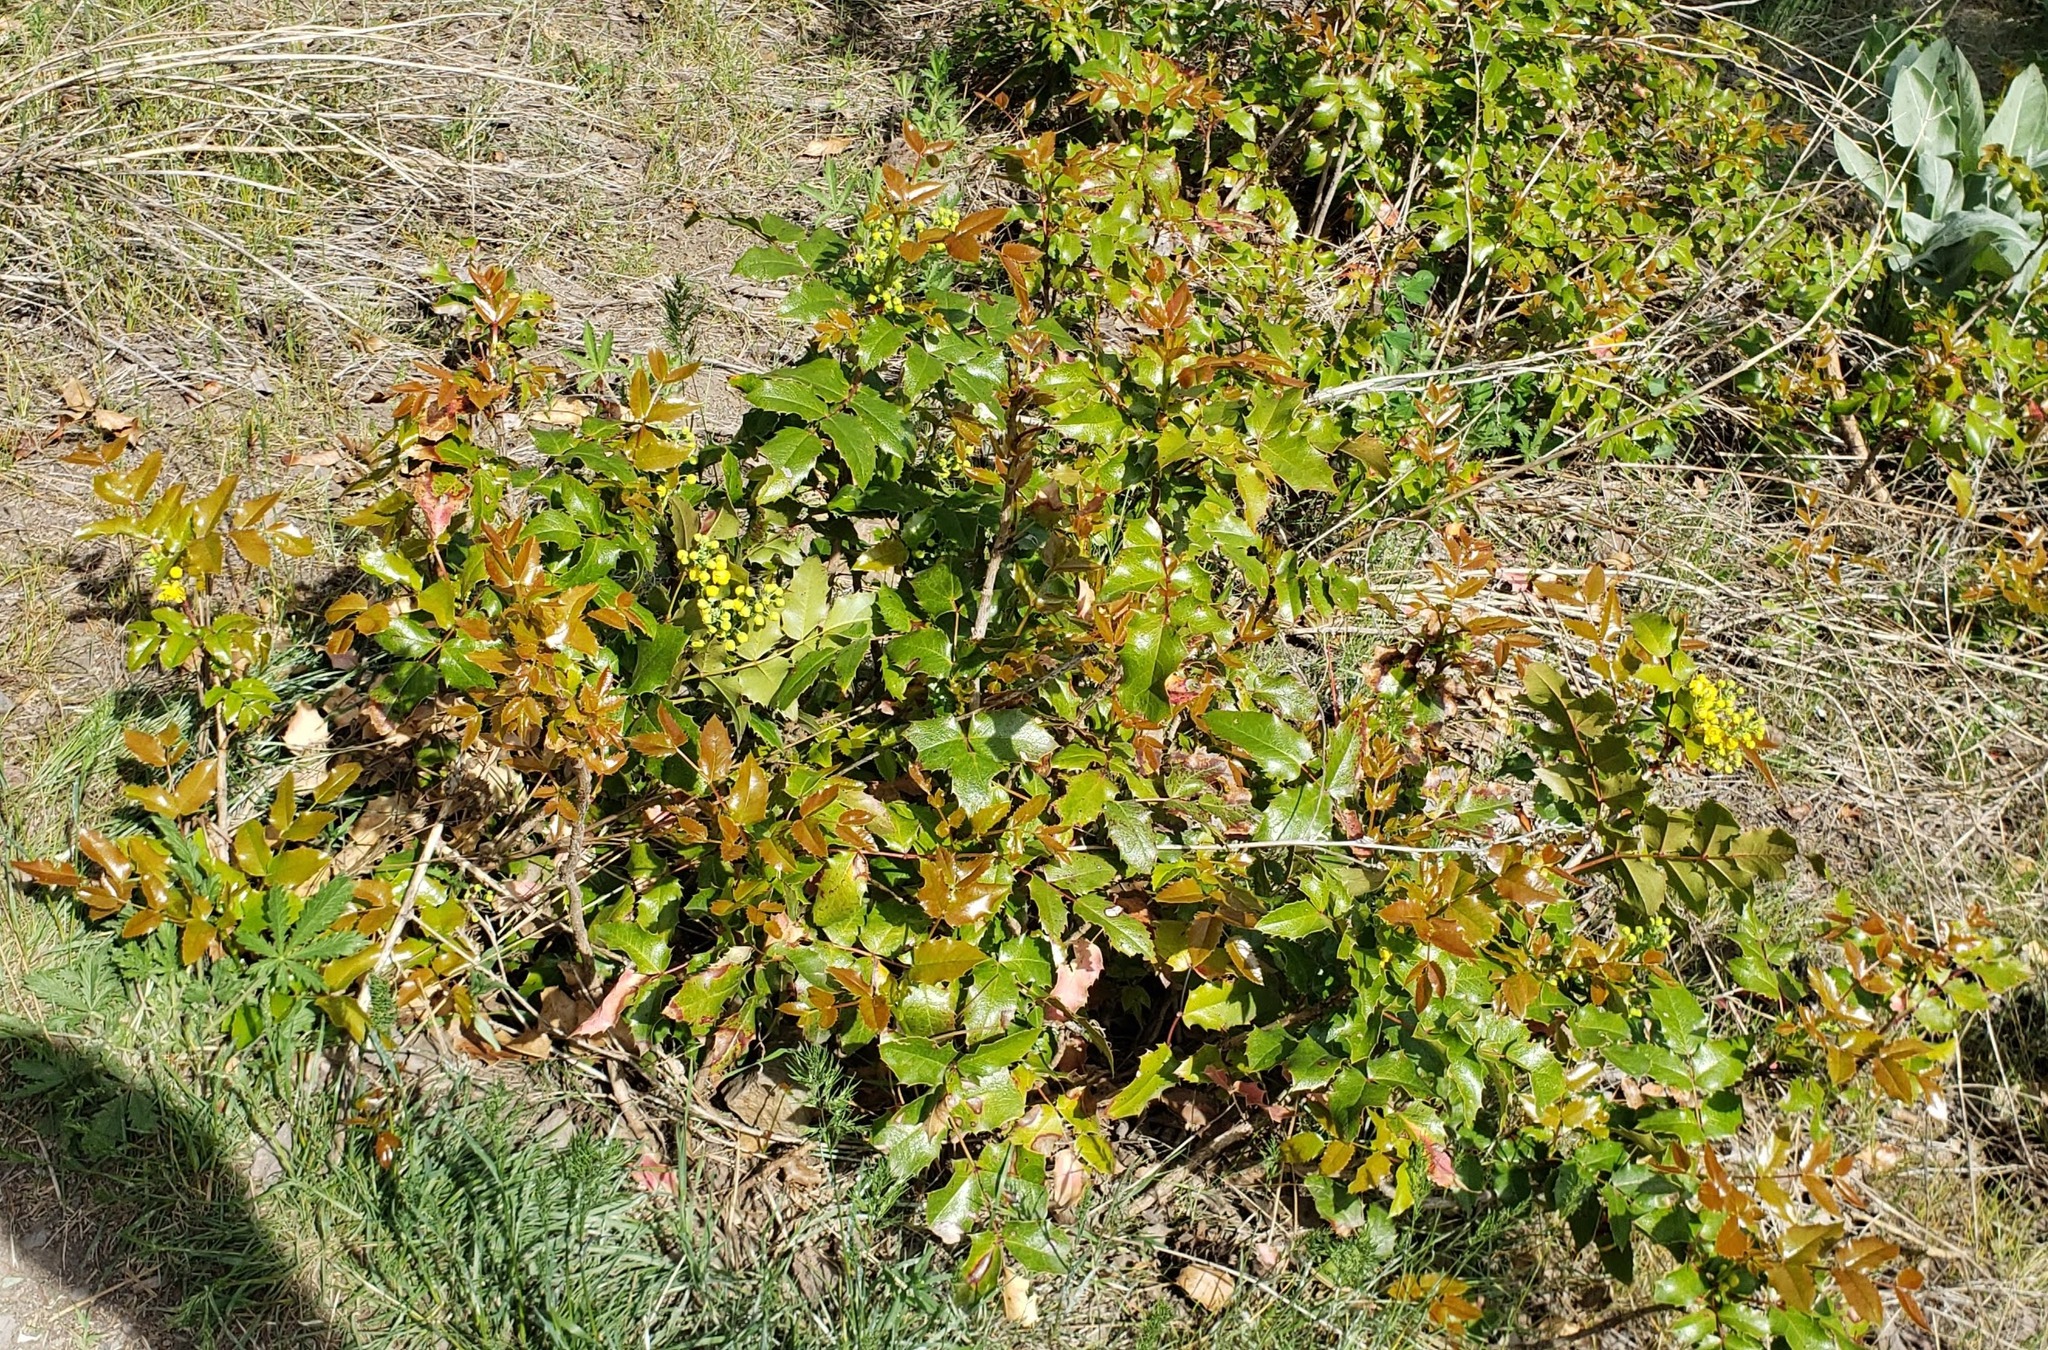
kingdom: Plantae
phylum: Tracheophyta
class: Magnoliopsida
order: Ranunculales
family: Berberidaceae
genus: Mahonia
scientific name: Mahonia aquifolium
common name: Oregon-grape
